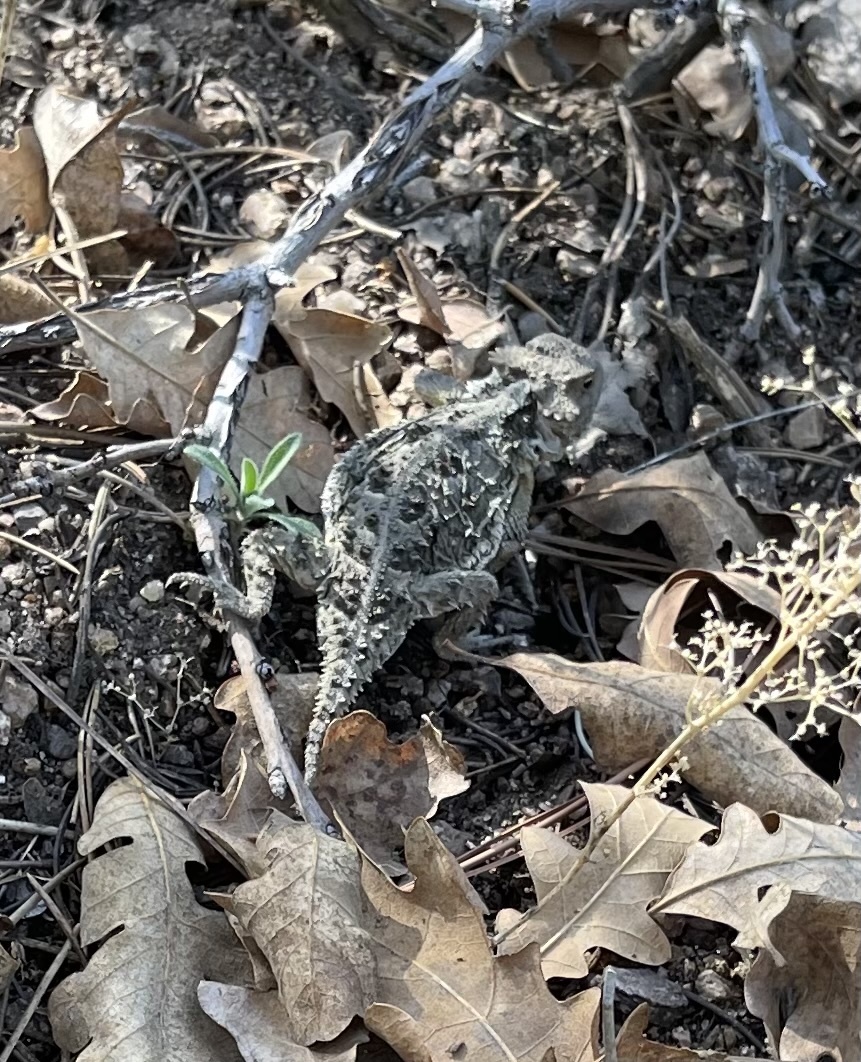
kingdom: Animalia
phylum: Chordata
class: Squamata
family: Phrynosomatidae
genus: Phrynosoma
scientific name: Phrynosoma hernandesi
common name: Greater short-horned lizard
